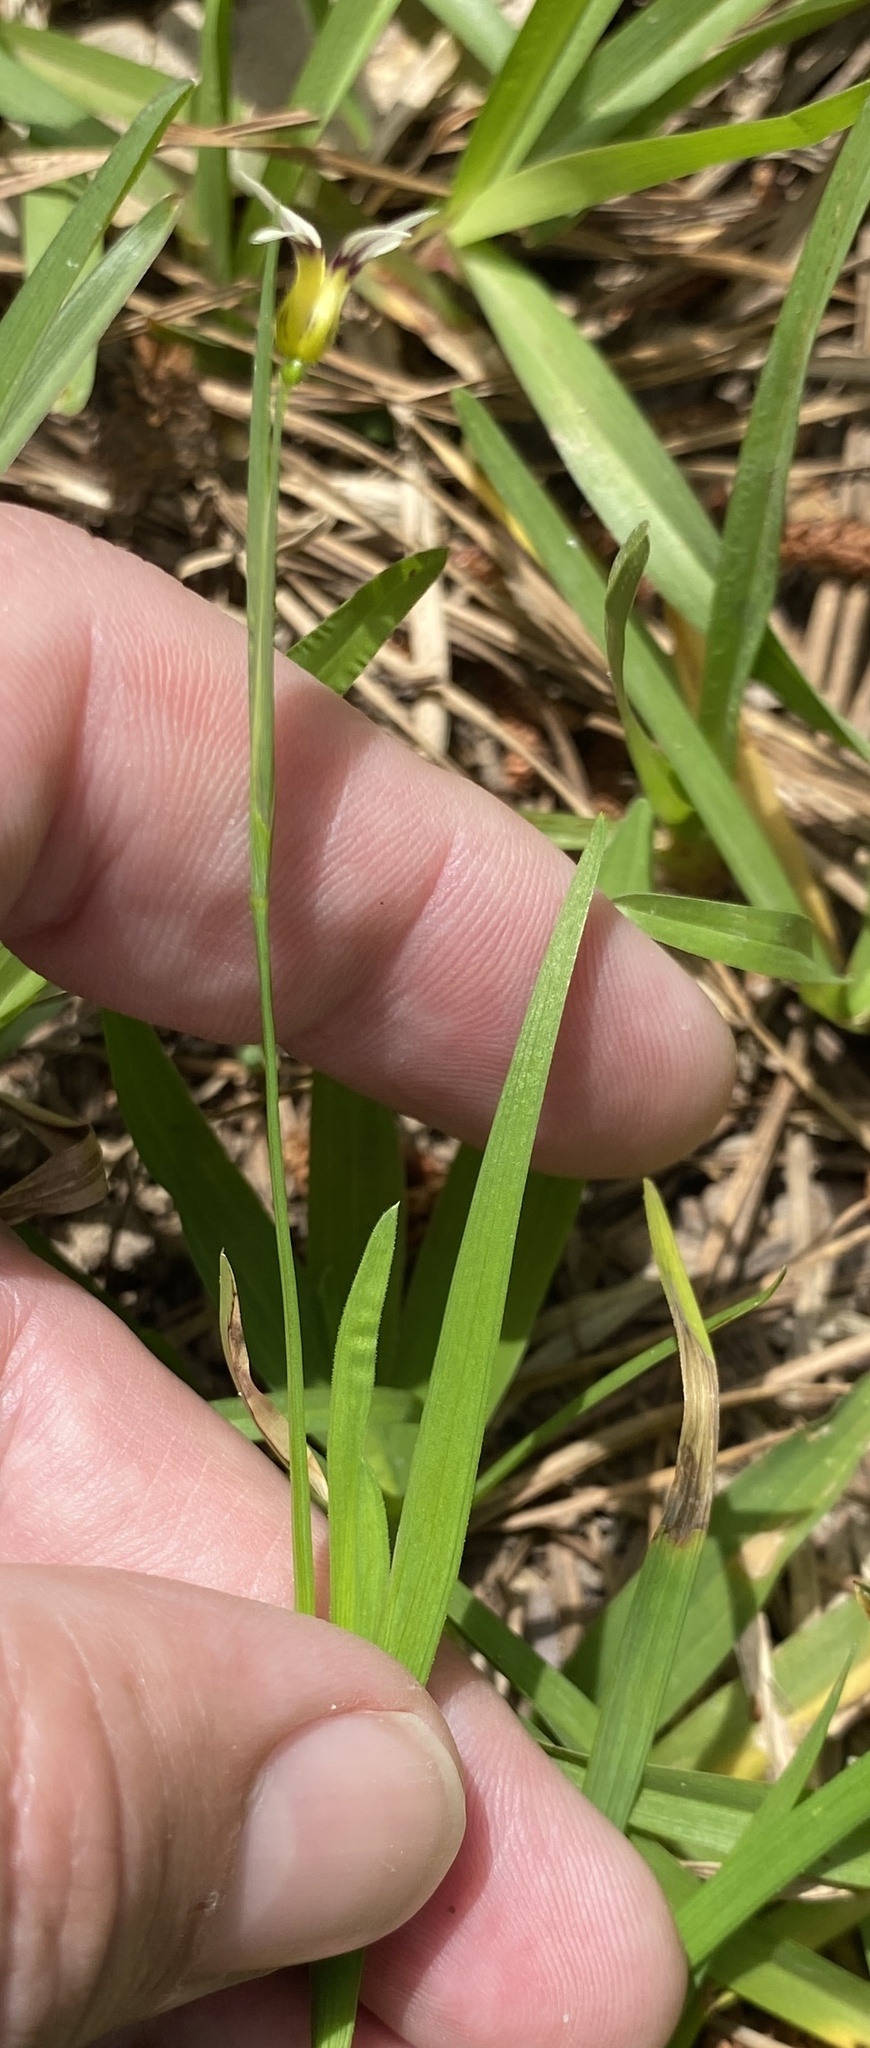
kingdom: Plantae
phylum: Tracheophyta
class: Liliopsida
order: Asparagales
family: Iridaceae
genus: Sisyrinchium
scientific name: Sisyrinchium micranthum
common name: Bermuda pigroot
